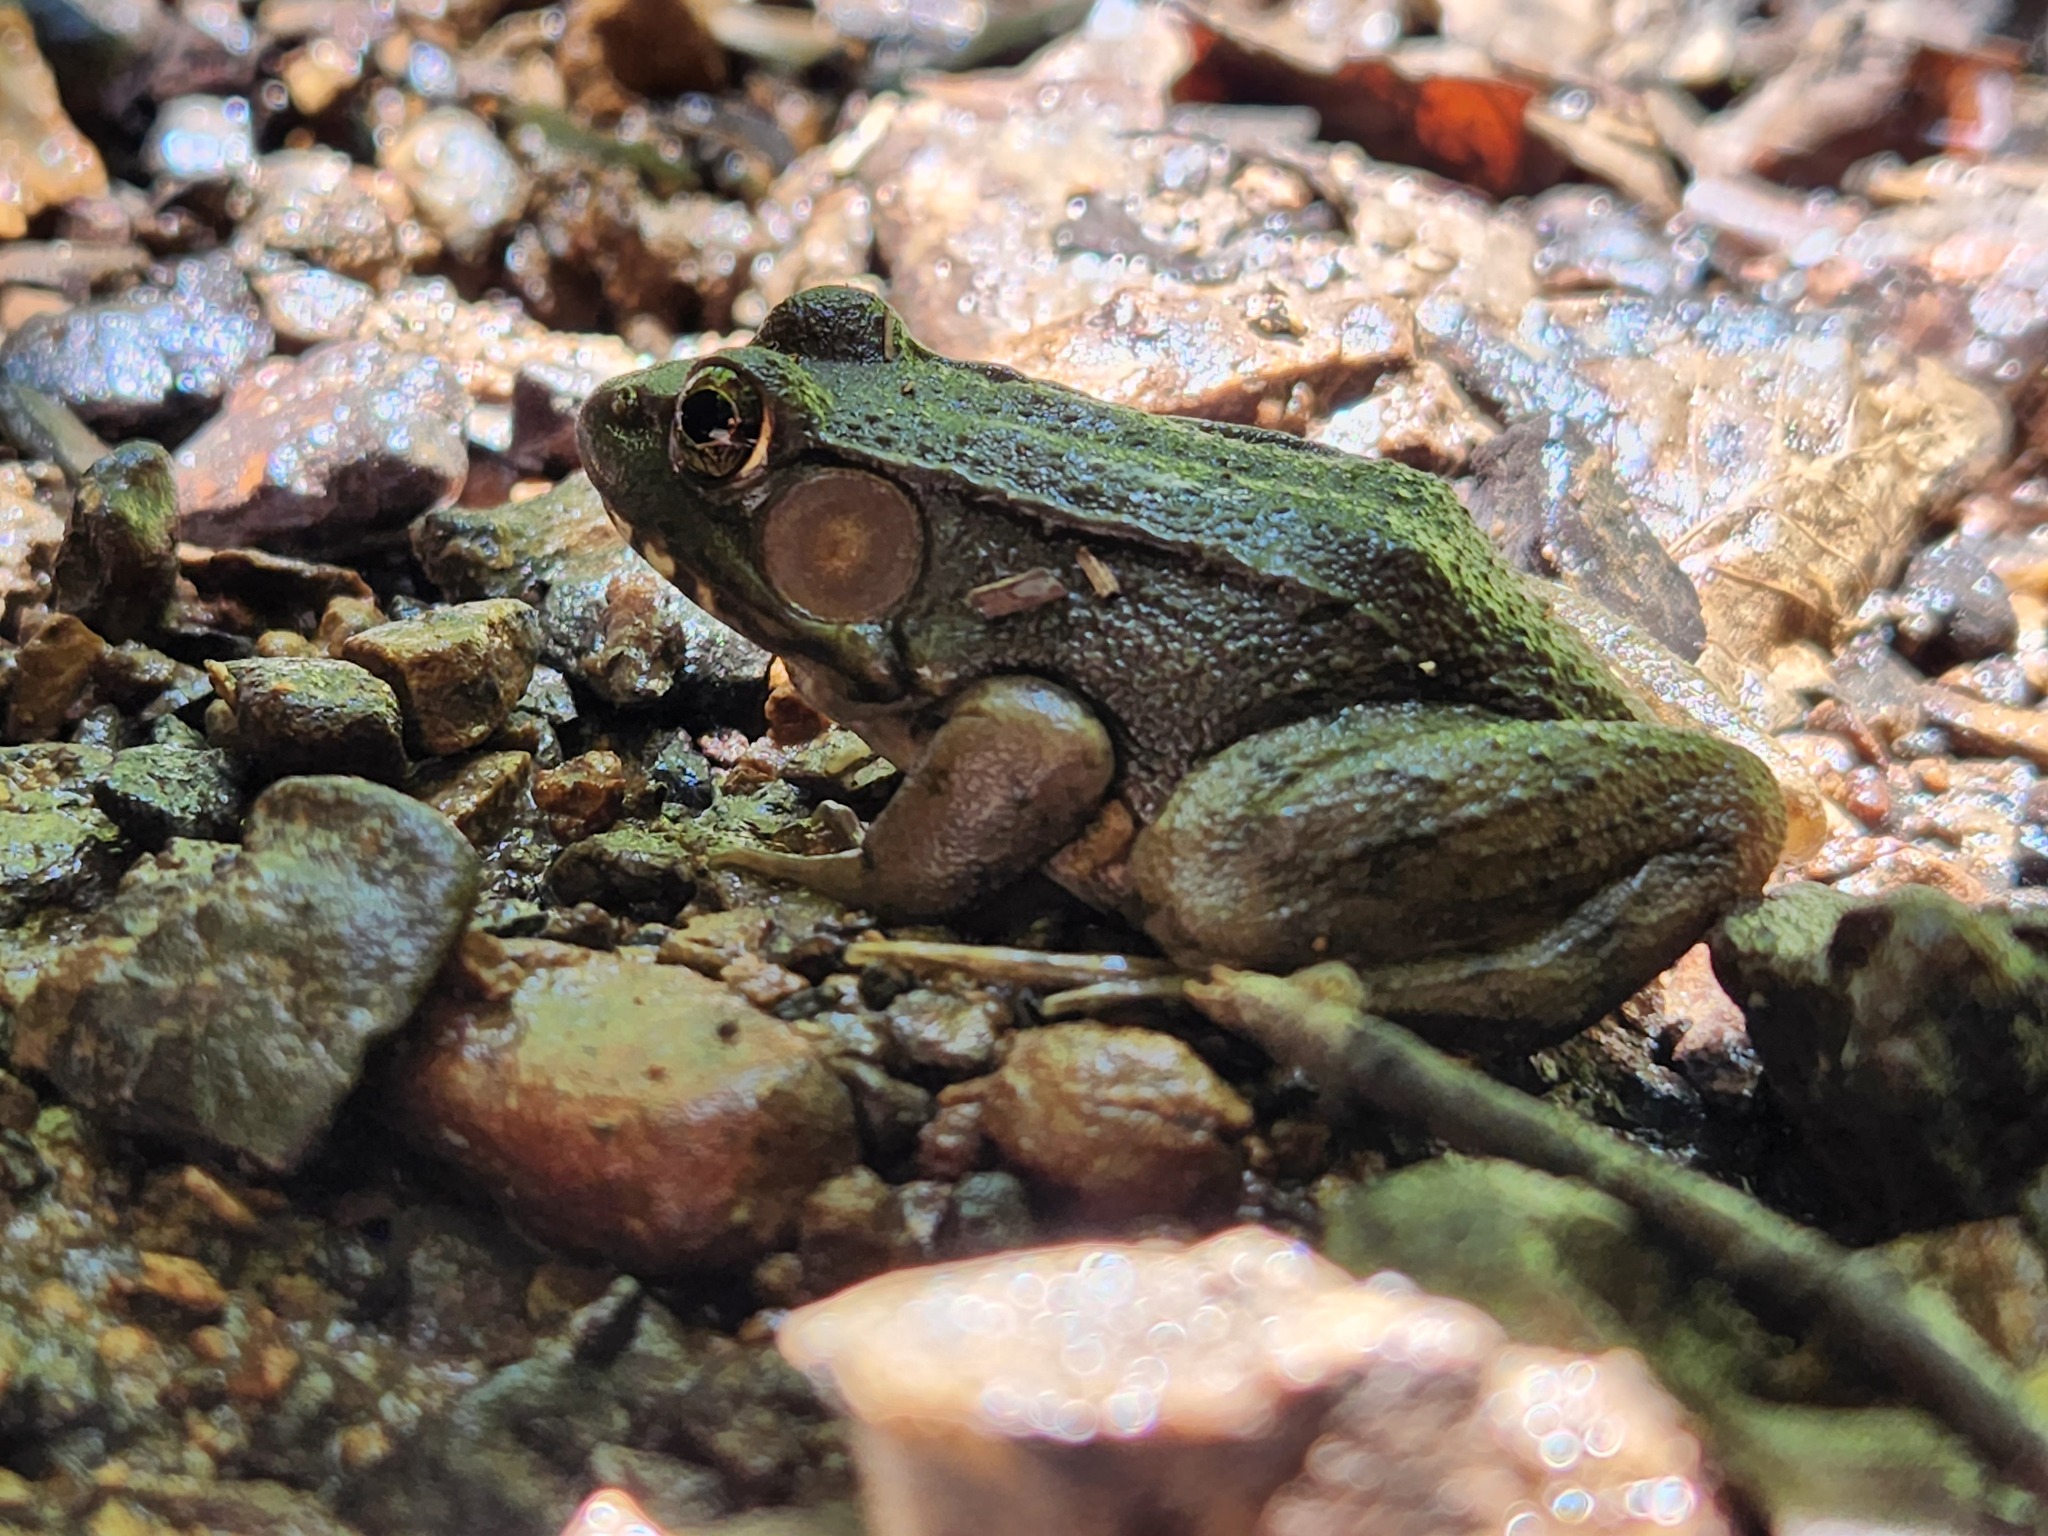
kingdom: Animalia
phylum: Chordata
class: Amphibia
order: Anura
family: Ranidae
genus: Lithobates
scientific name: Lithobates clamitans
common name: Green frog
